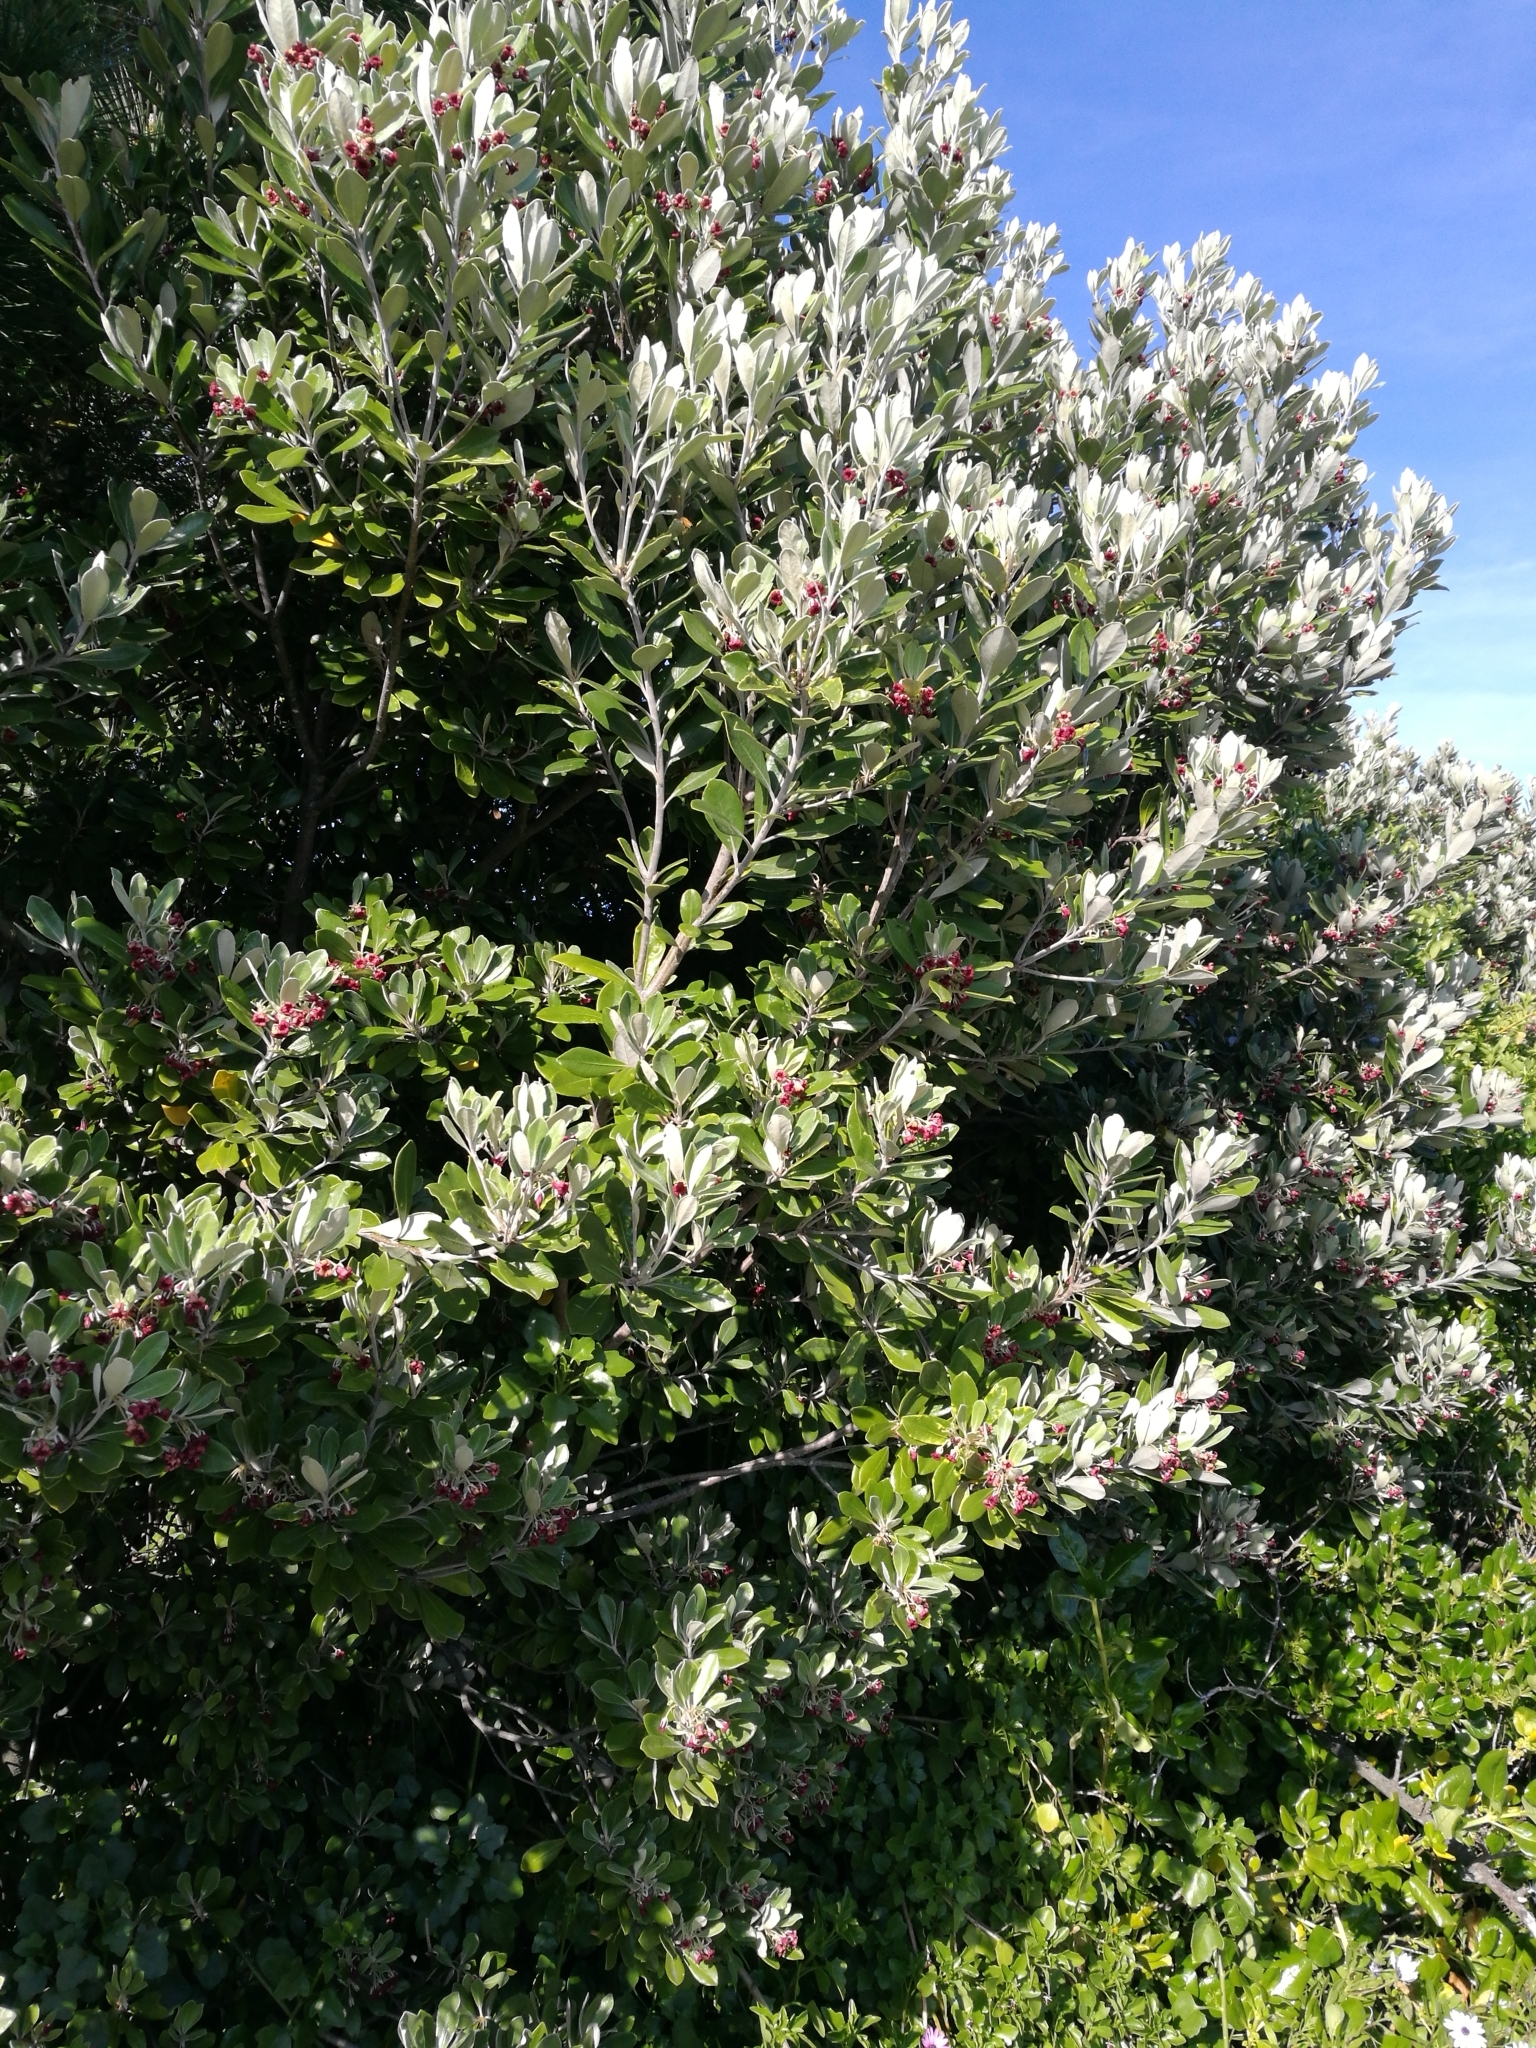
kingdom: Plantae
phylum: Tracheophyta
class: Magnoliopsida
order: Apiales
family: Pittosporaceae
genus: Pittosporum
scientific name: Pittosporum crassifolium
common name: Karo
